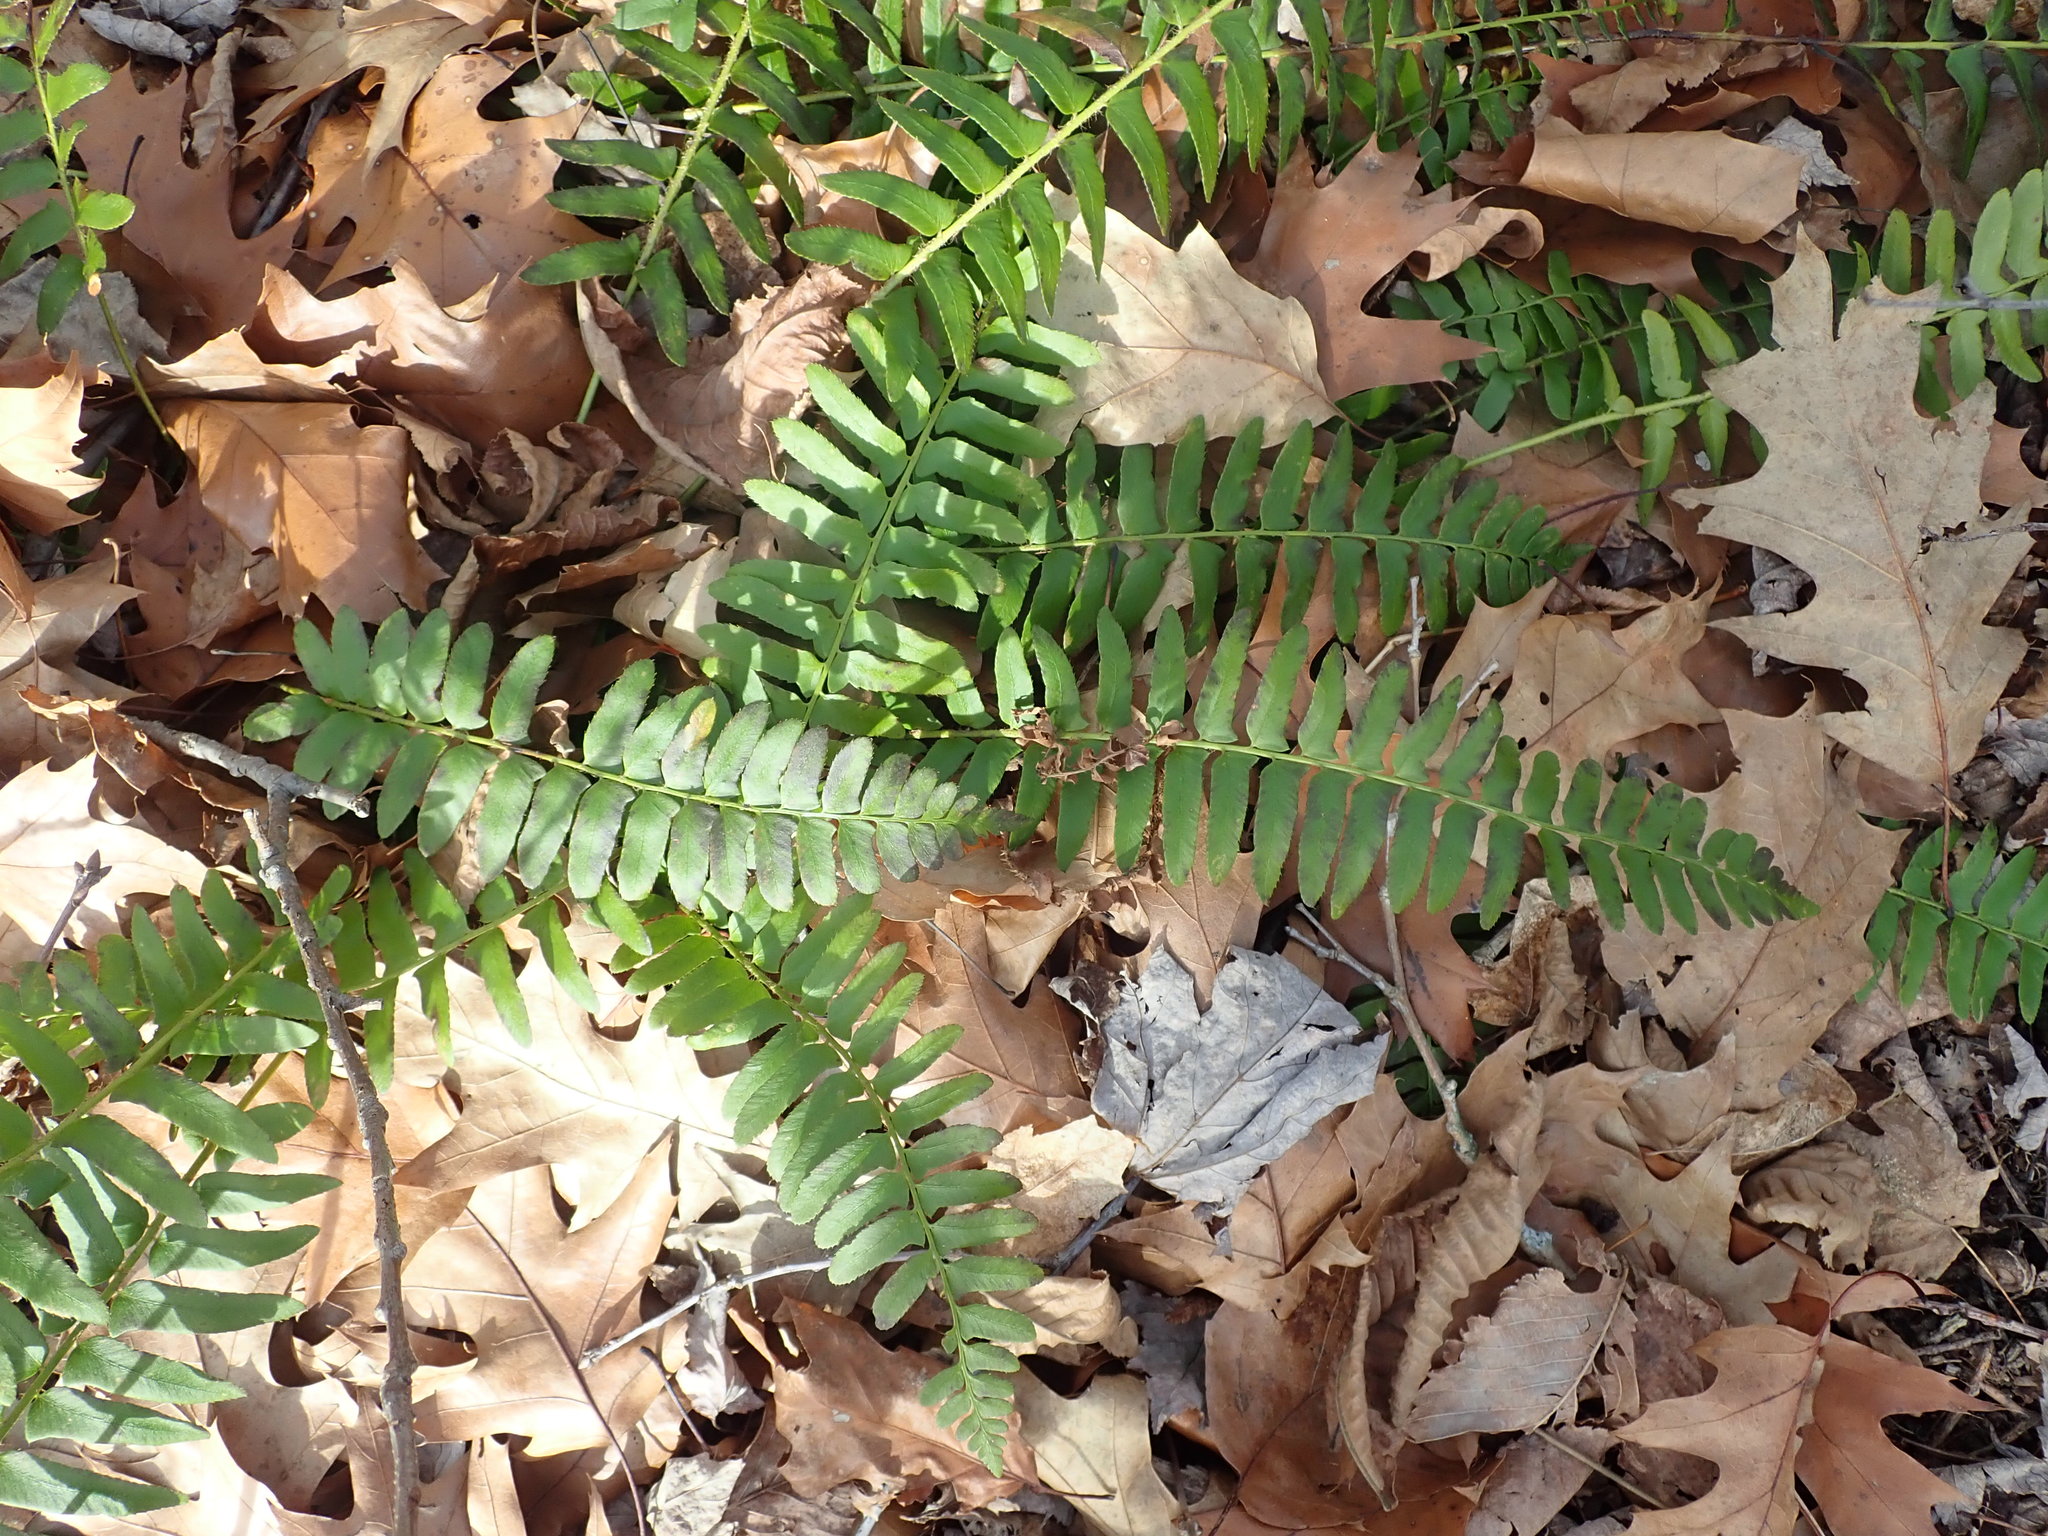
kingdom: Plantae
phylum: Tracheophyta
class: Polypodiopsida
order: Polypodiales
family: Dryopteridaceae
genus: Polystichum
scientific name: Polystichum acrostichoides
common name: Christmas fern
